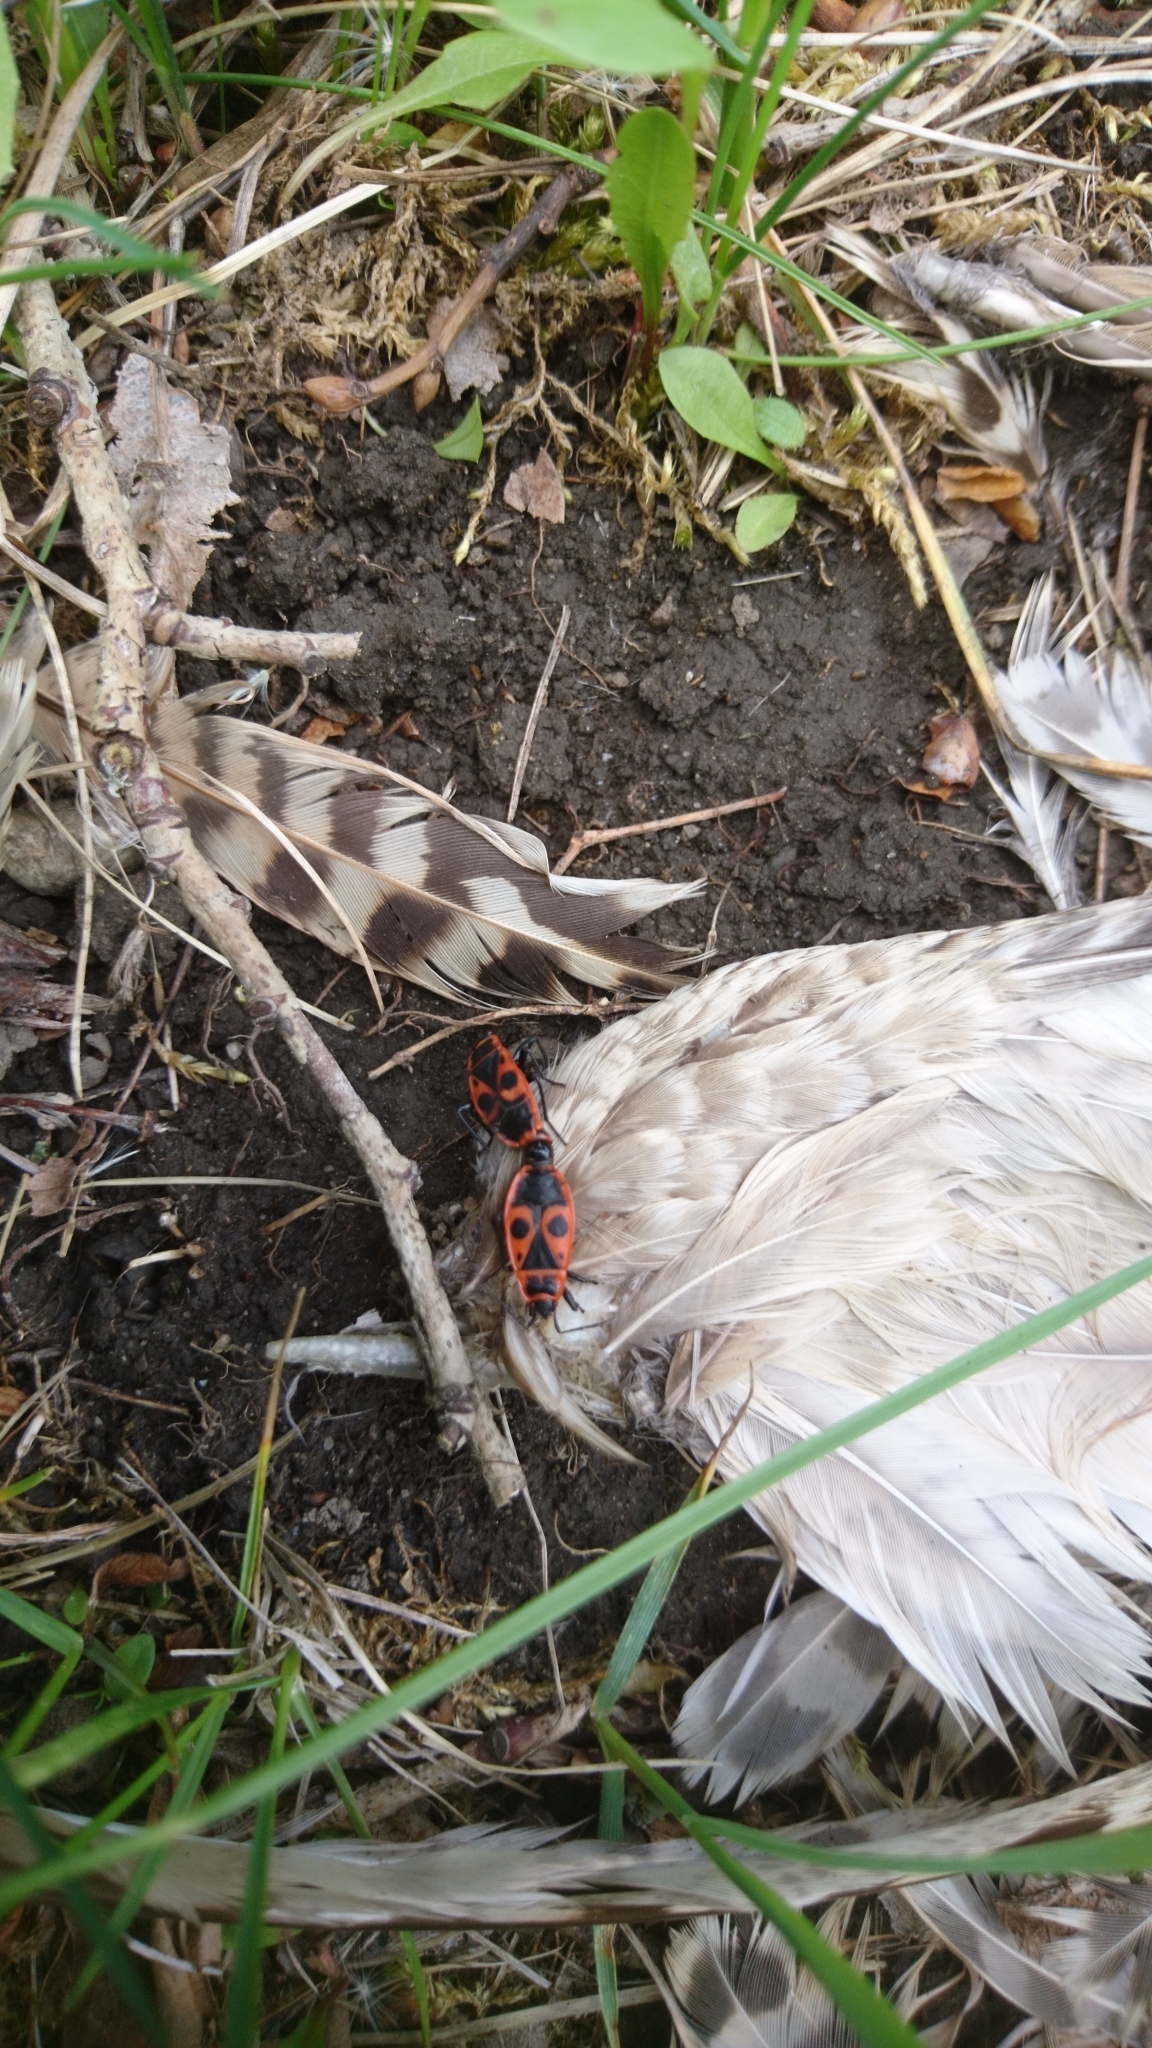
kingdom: Animalia
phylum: Arthropoda
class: Insecta
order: Hemiptera
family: Pyrrhocoridae
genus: Pyrrhocoris
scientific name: Pyrrhocoris apterus
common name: Firebug
